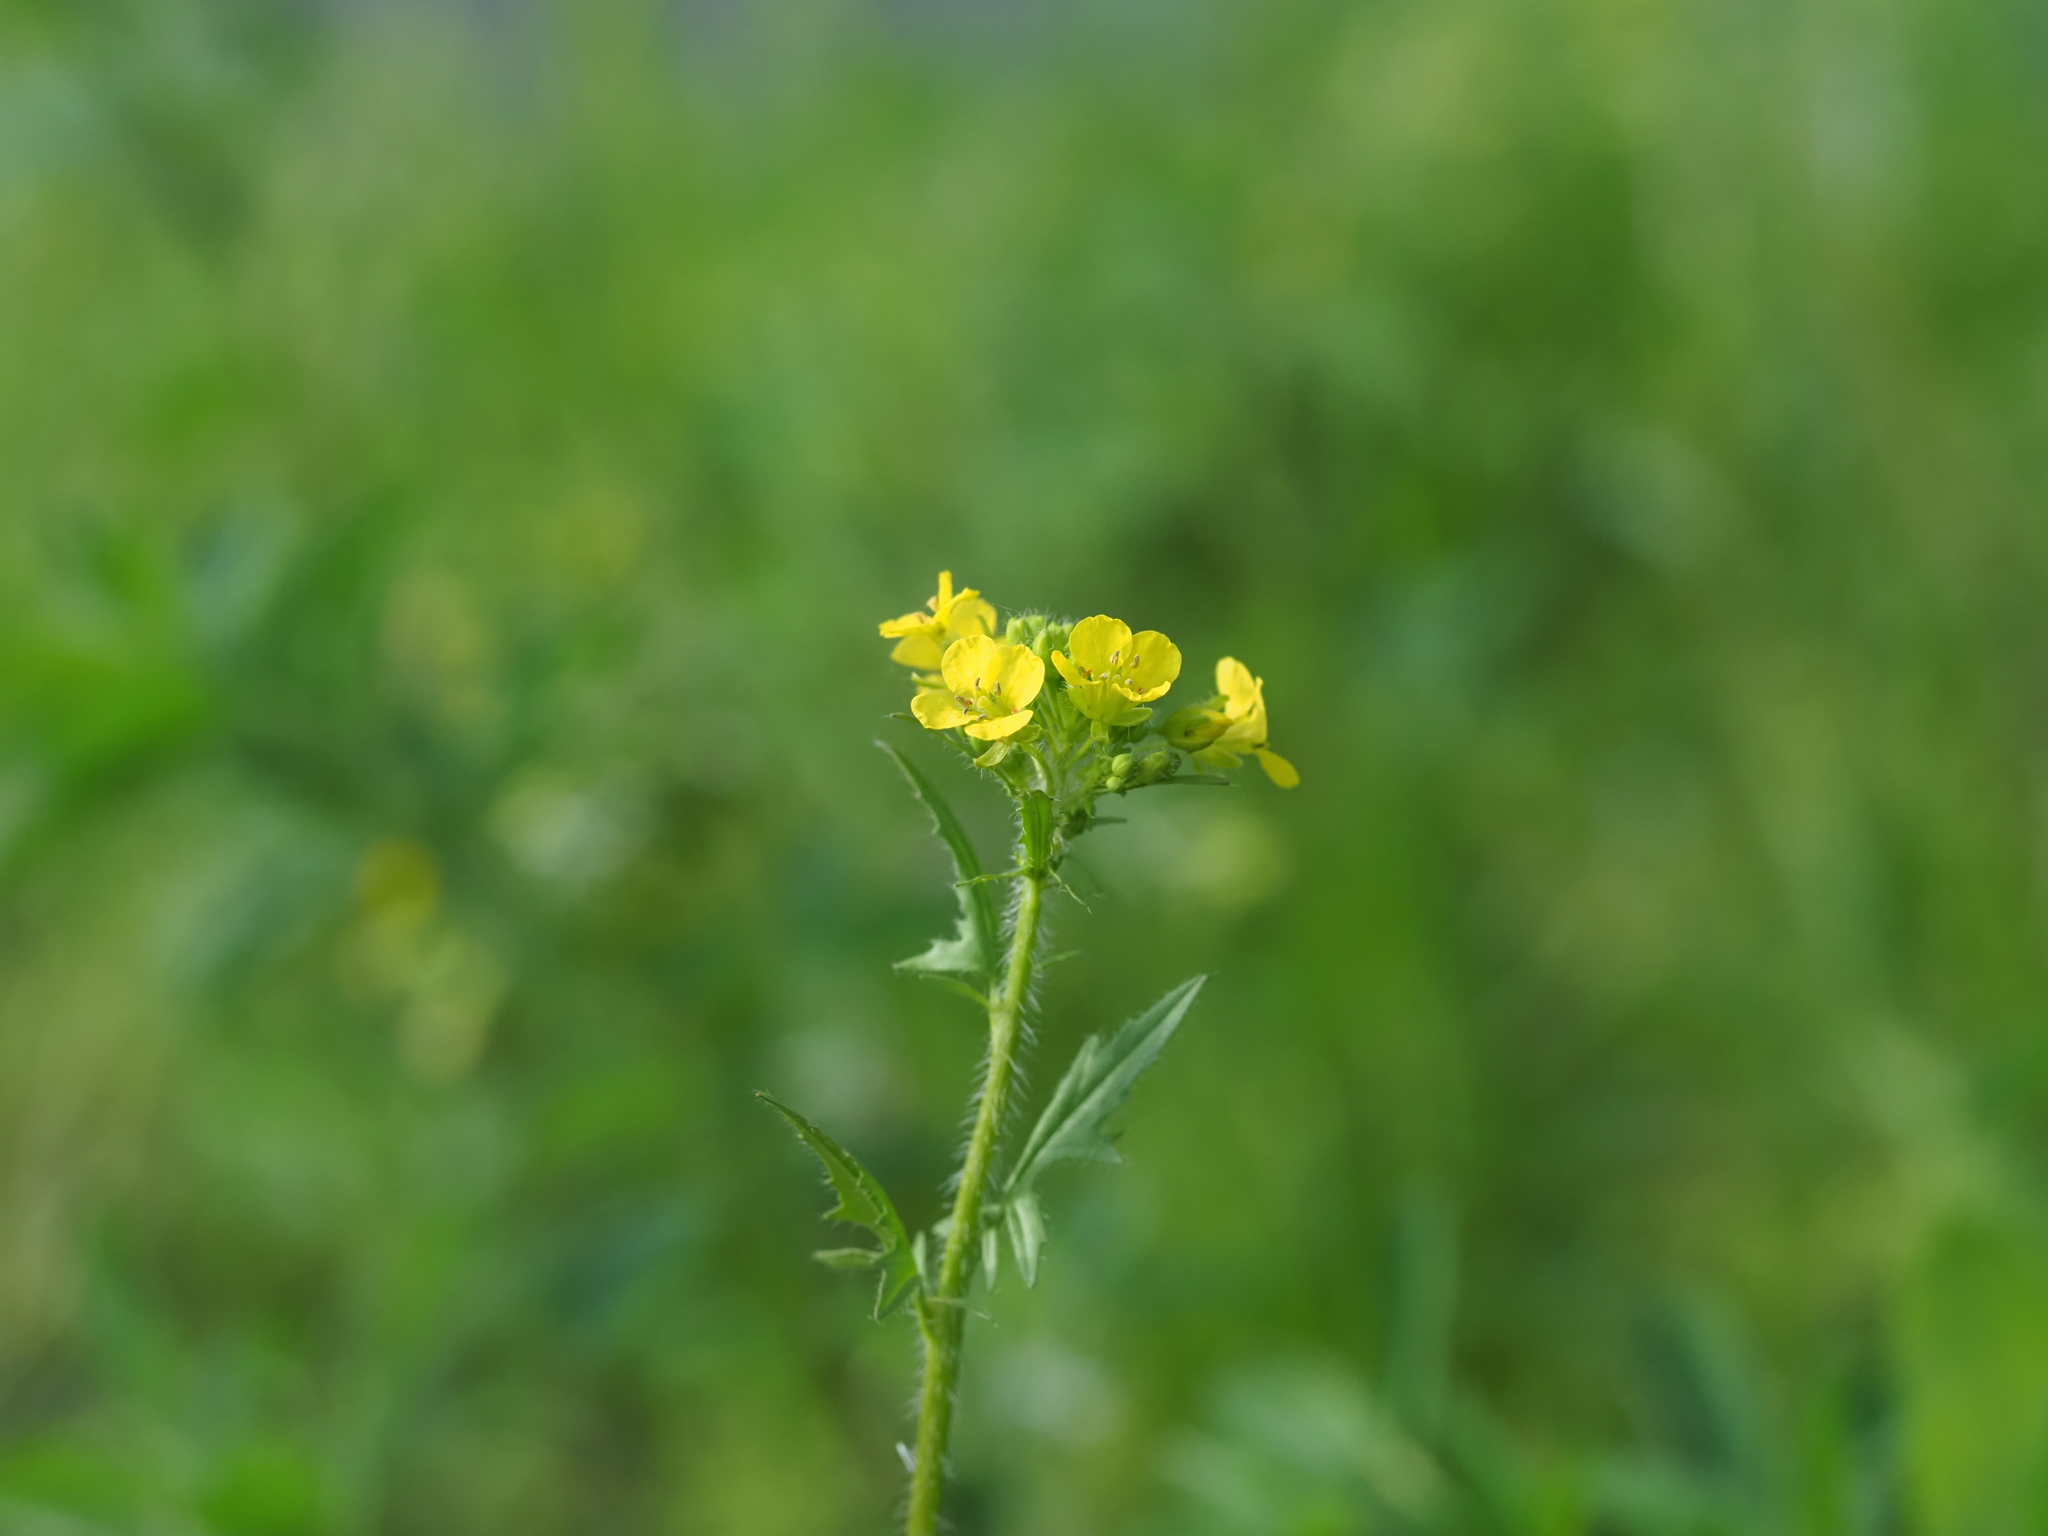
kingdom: Plantae
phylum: Tracheophyta
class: Magnoliopsida
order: Brassicales
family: Brassicaceae
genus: Sisymbrium
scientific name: Sisymbrium loeselii
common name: False london-rocket
